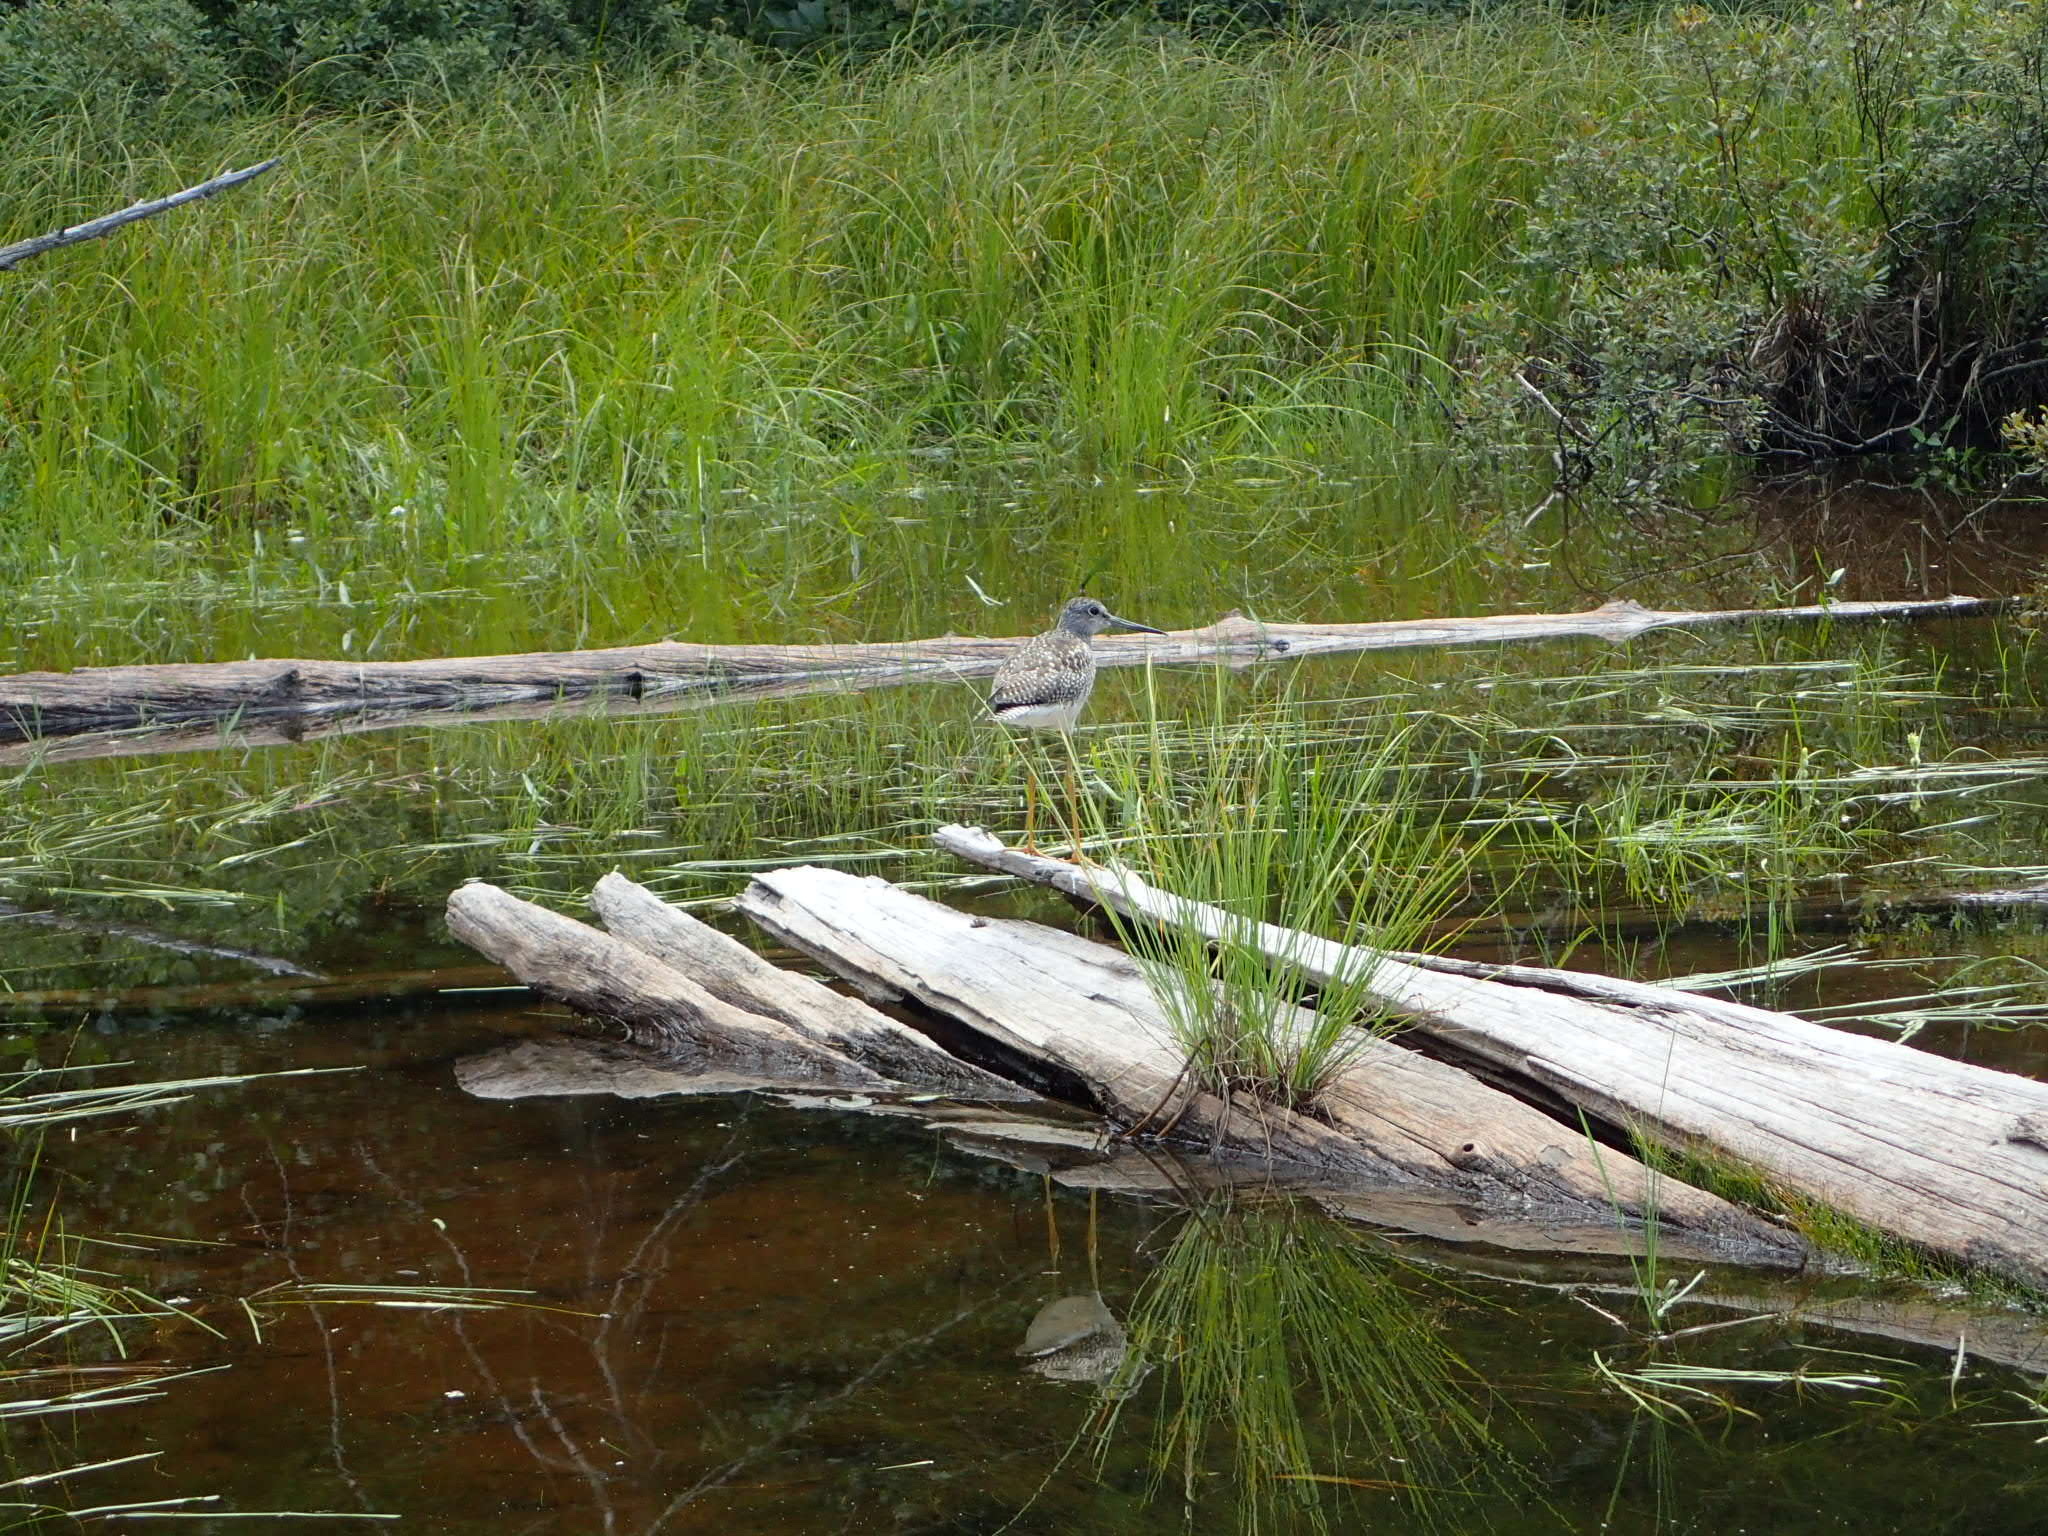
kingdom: Animalia
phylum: Chordata
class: Aves
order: Charadriiformes
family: Scolopacidae
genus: Tringa
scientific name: Tringa melanoleuca
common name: Greater yellowlegs
